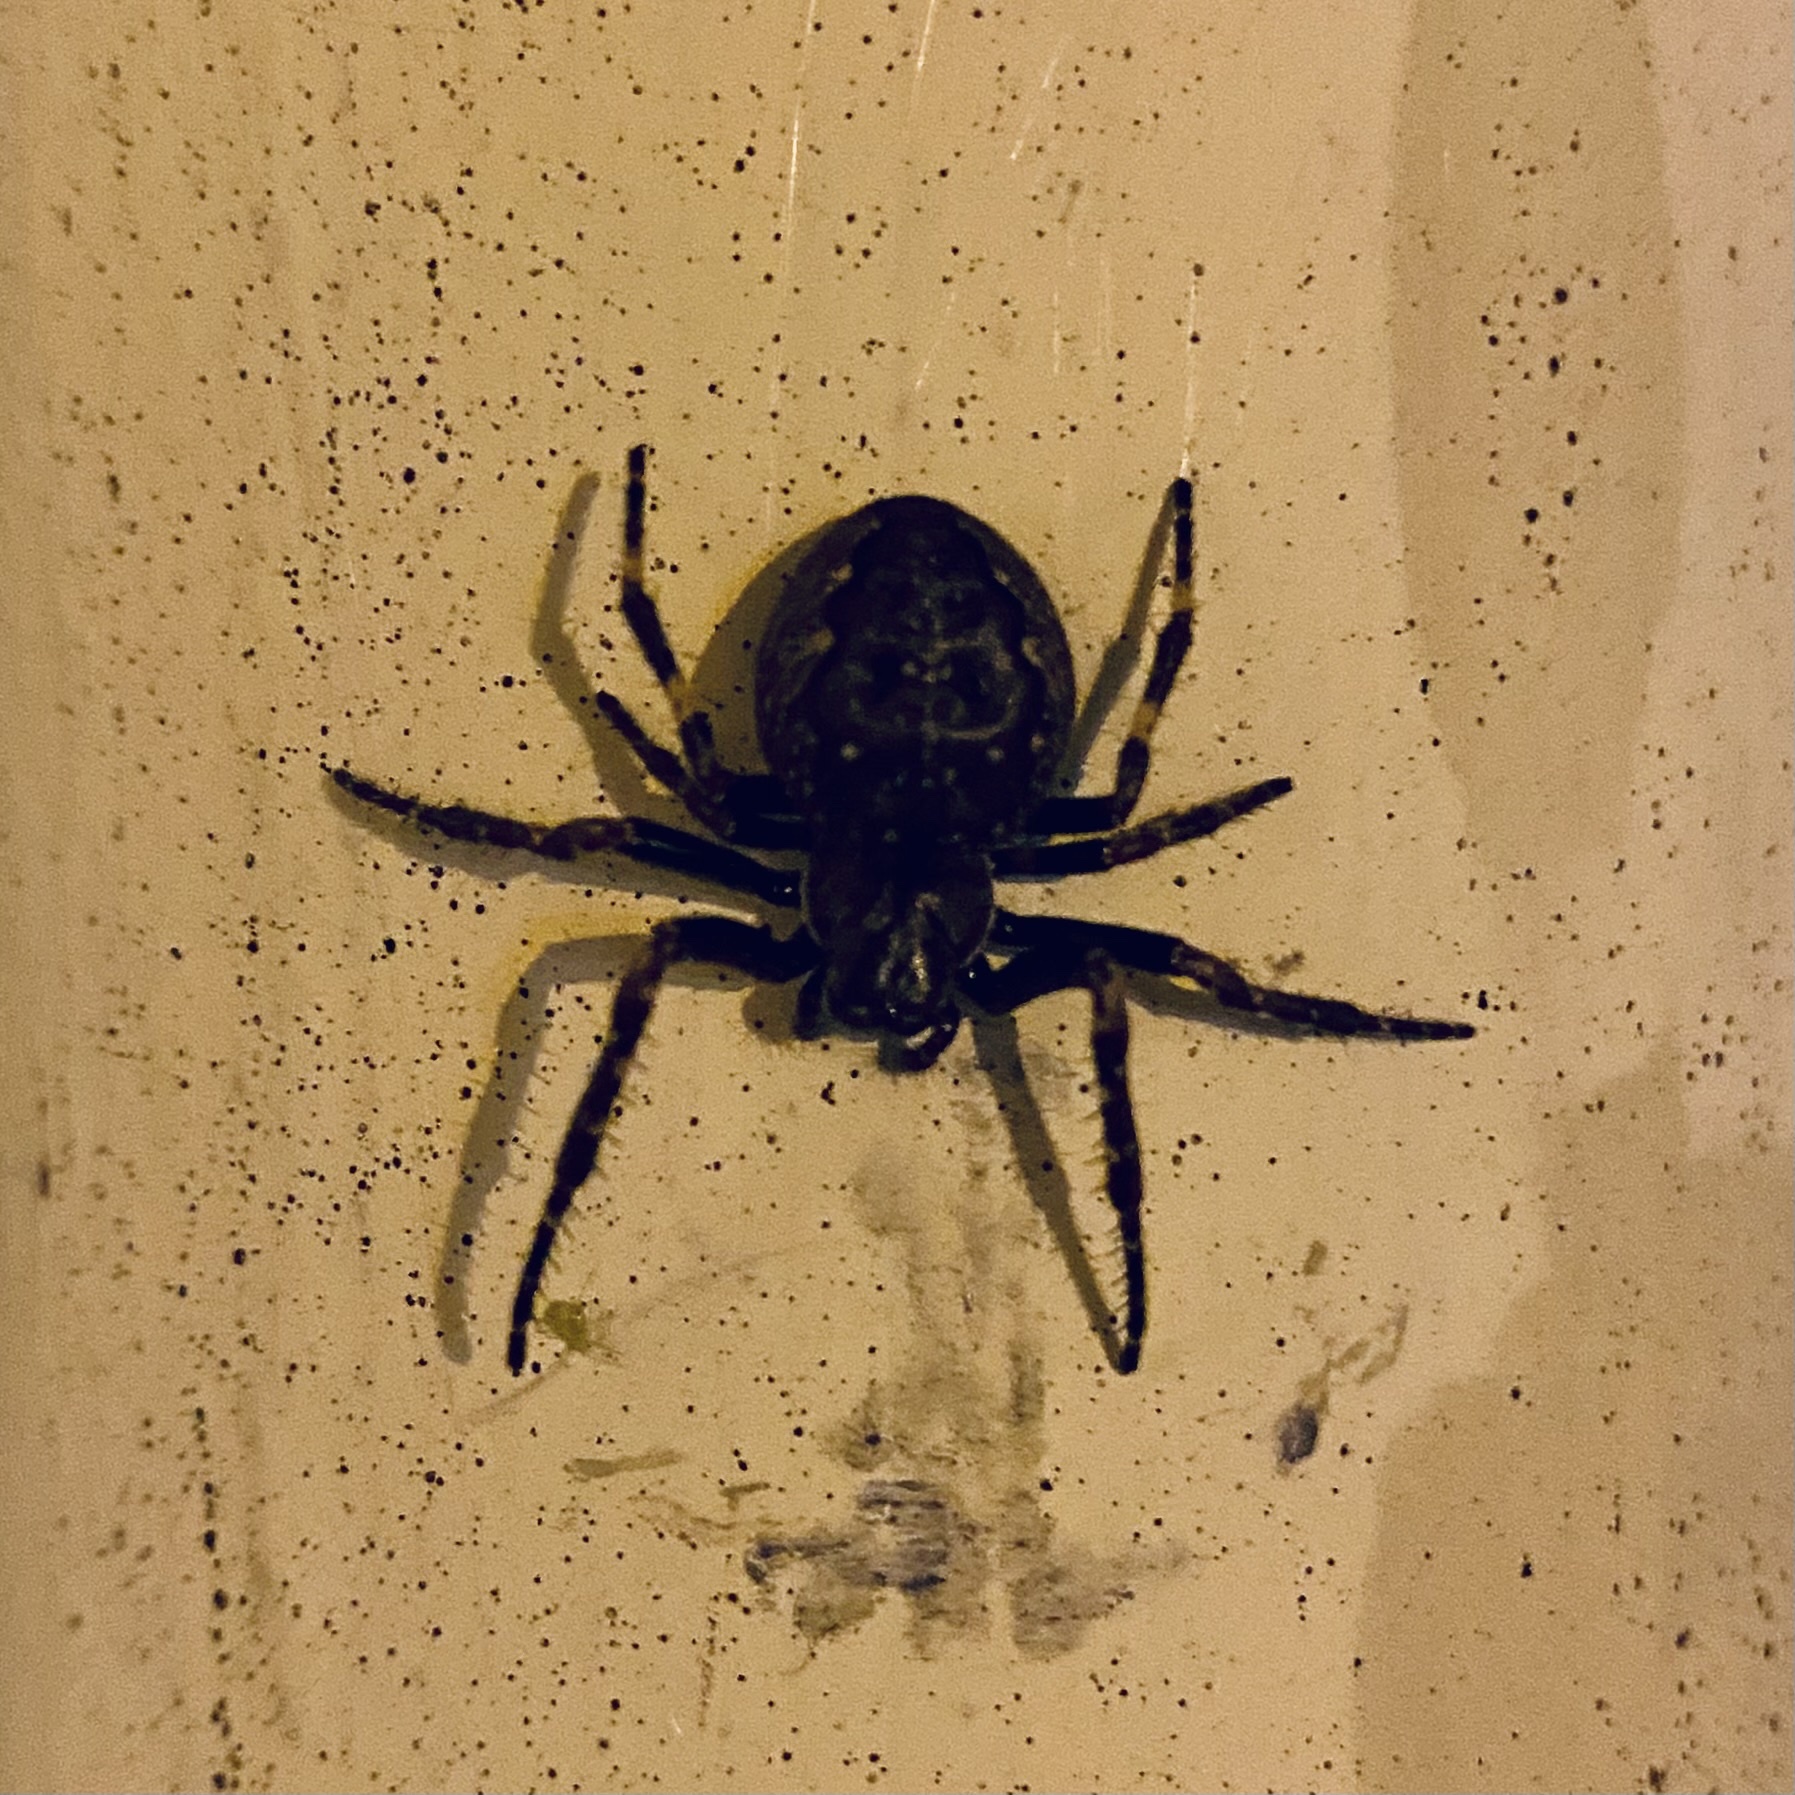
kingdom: Animalia
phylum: Arthropoda
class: Arachnida
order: Araneae
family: Araneidae
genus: Nuctenea
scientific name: Nuctenea umbratica
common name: Toad spider
